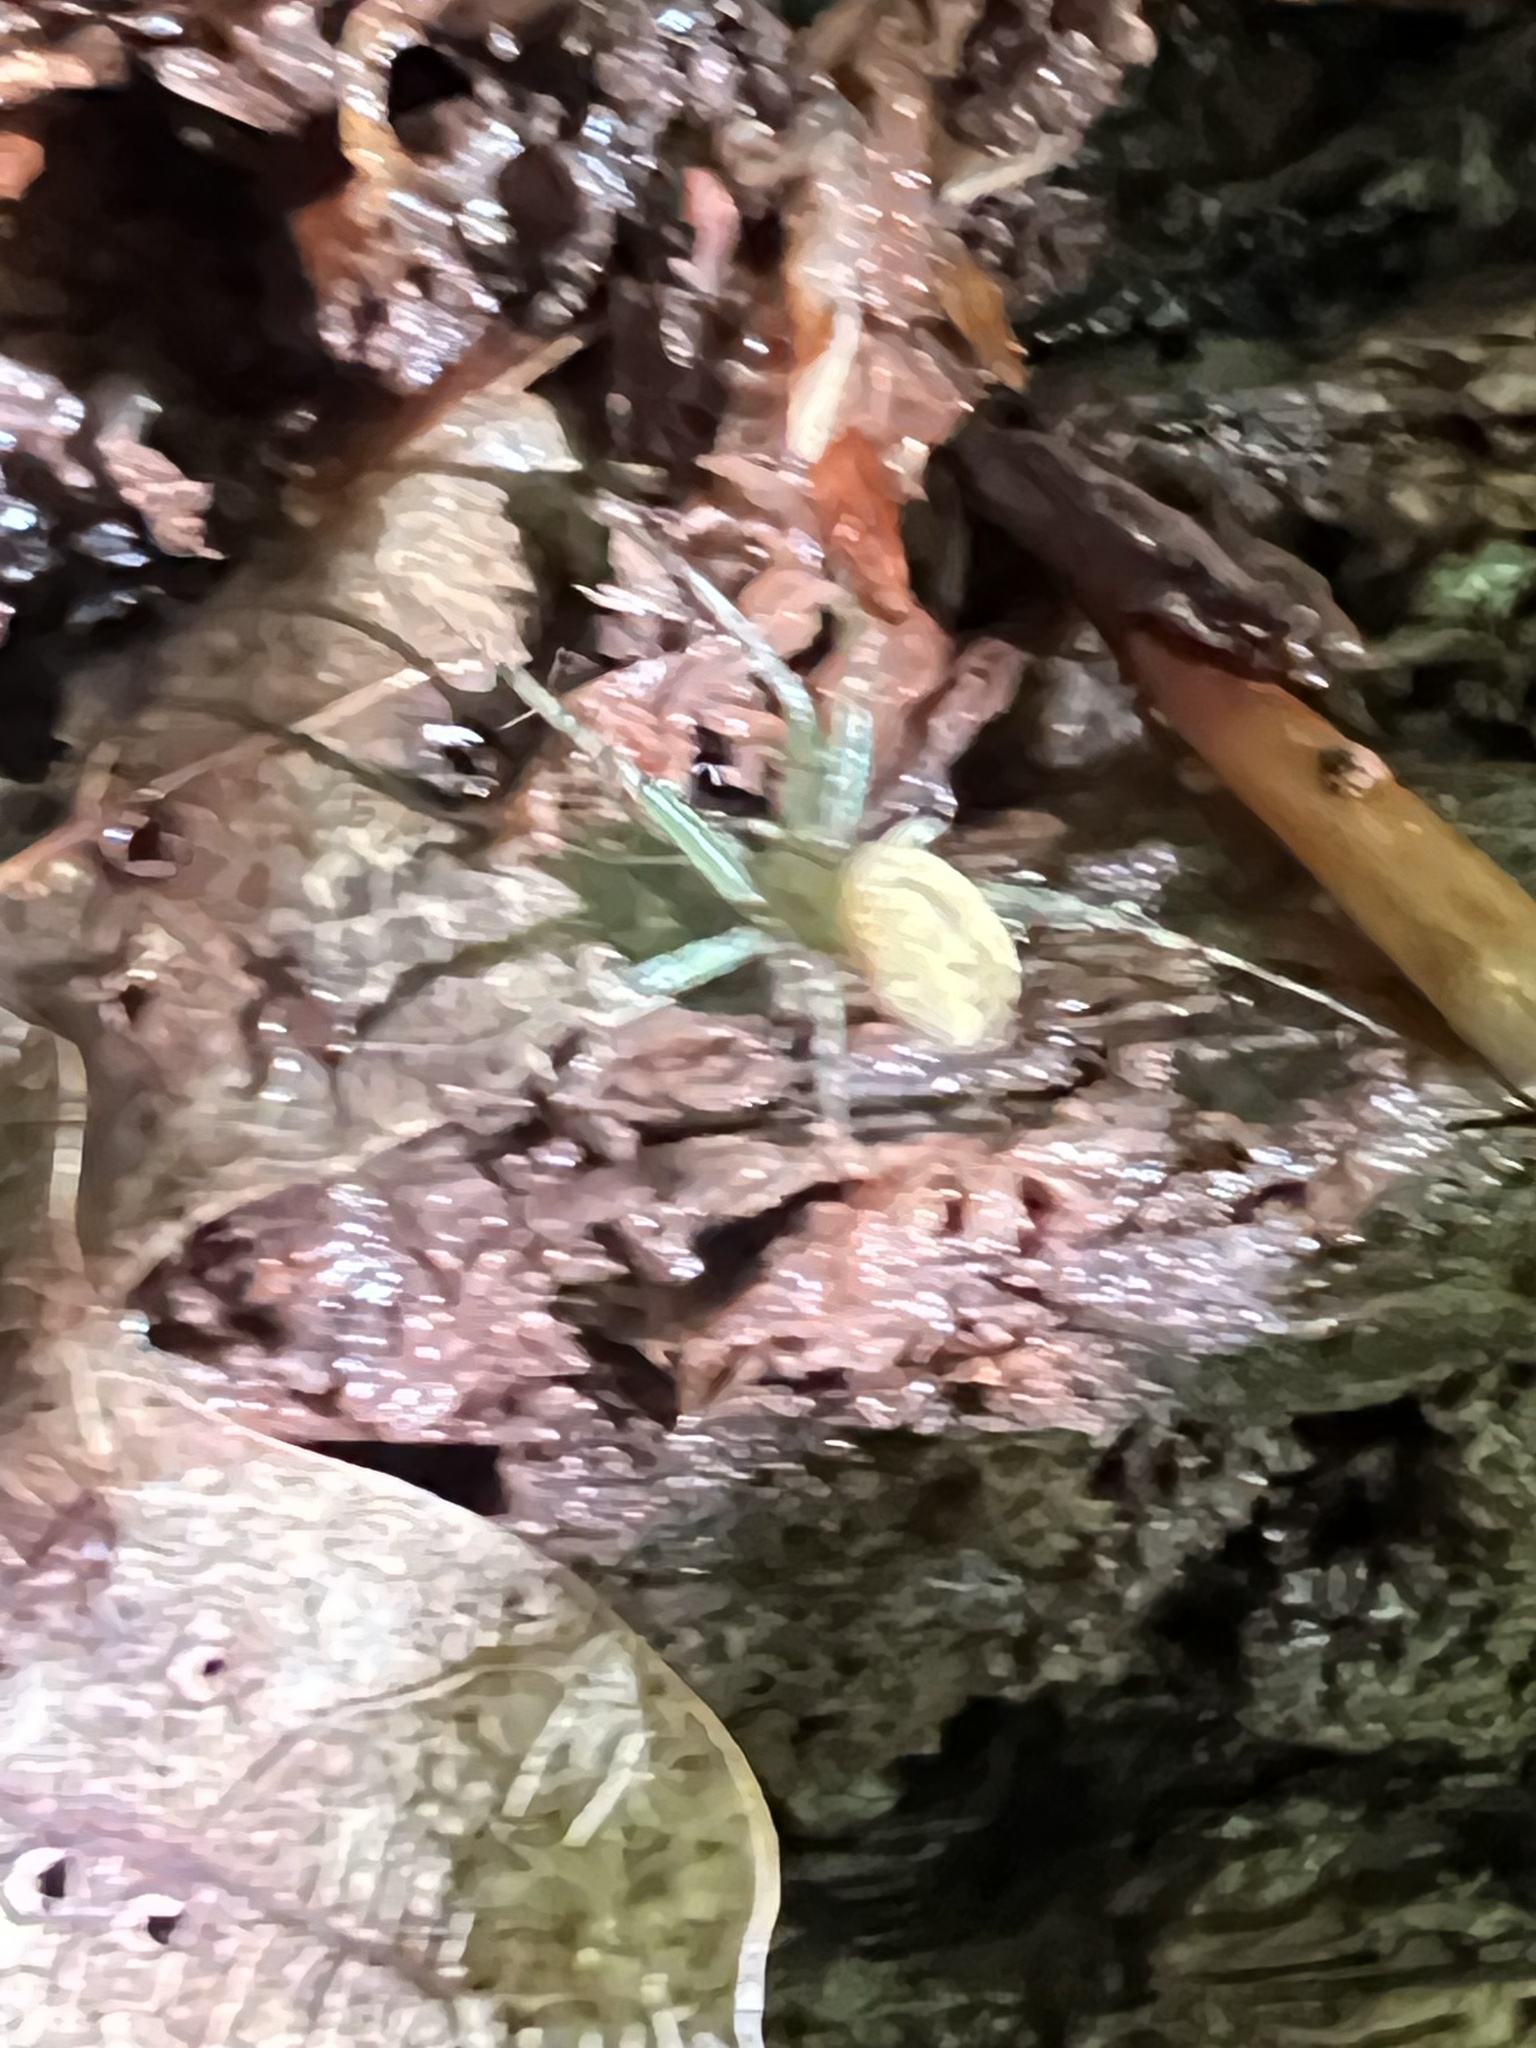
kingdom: Animalia
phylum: Arthropoda
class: Arachnida
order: Araneae
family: Araneidae
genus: Mangora
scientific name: Mangora maculata
